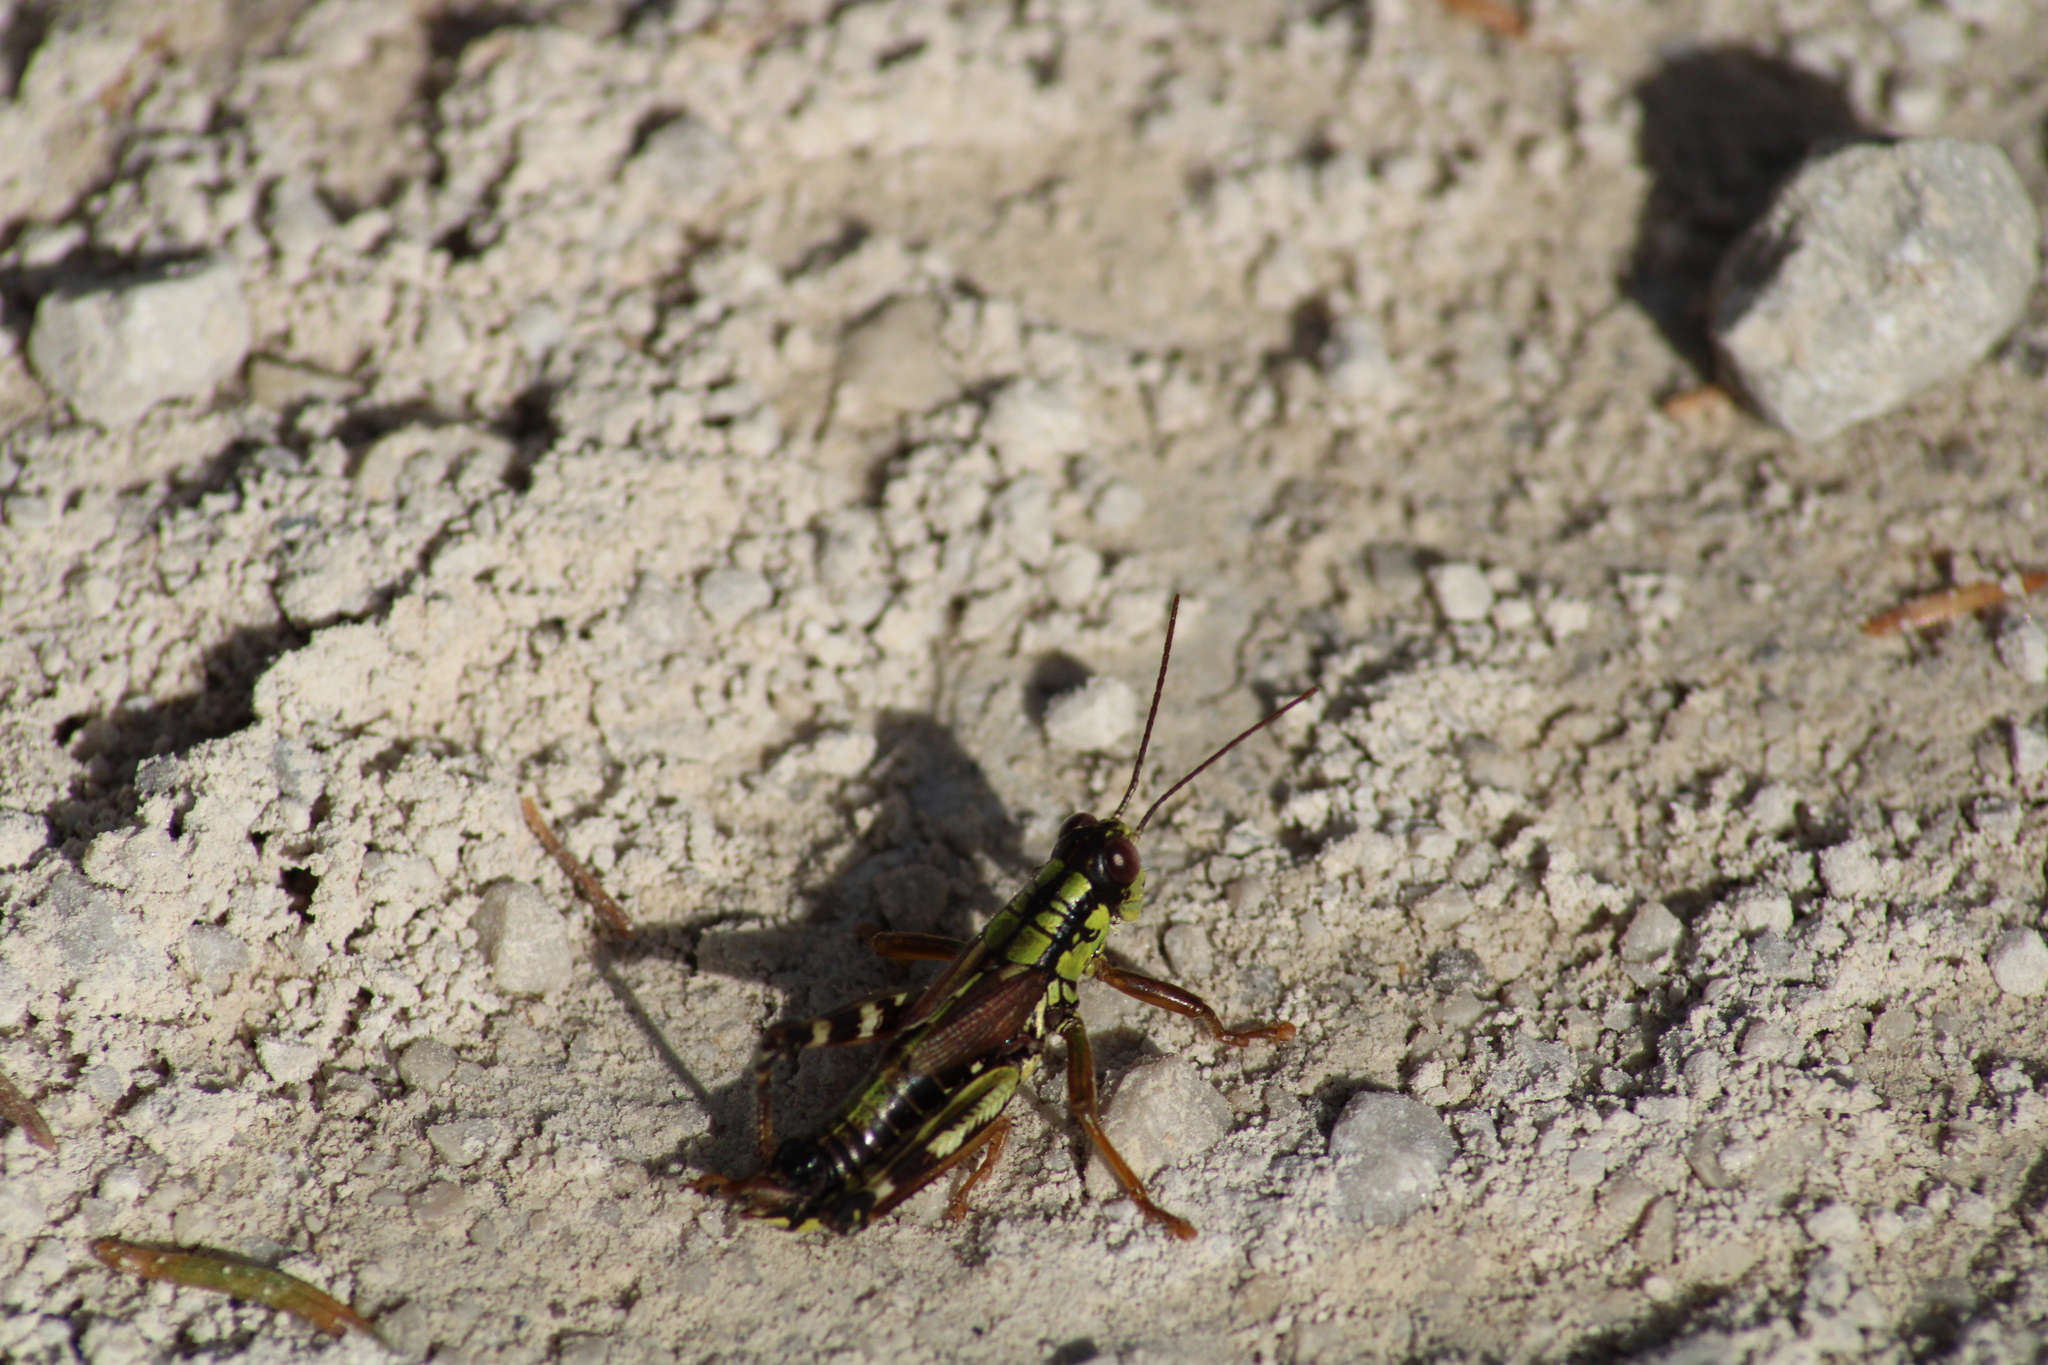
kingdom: Animalia
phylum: Arthropoda
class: Insecta
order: Orthoptera
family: Acrididae
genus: Miramella
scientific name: Miramella alpina
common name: Green mountain grasshopper
